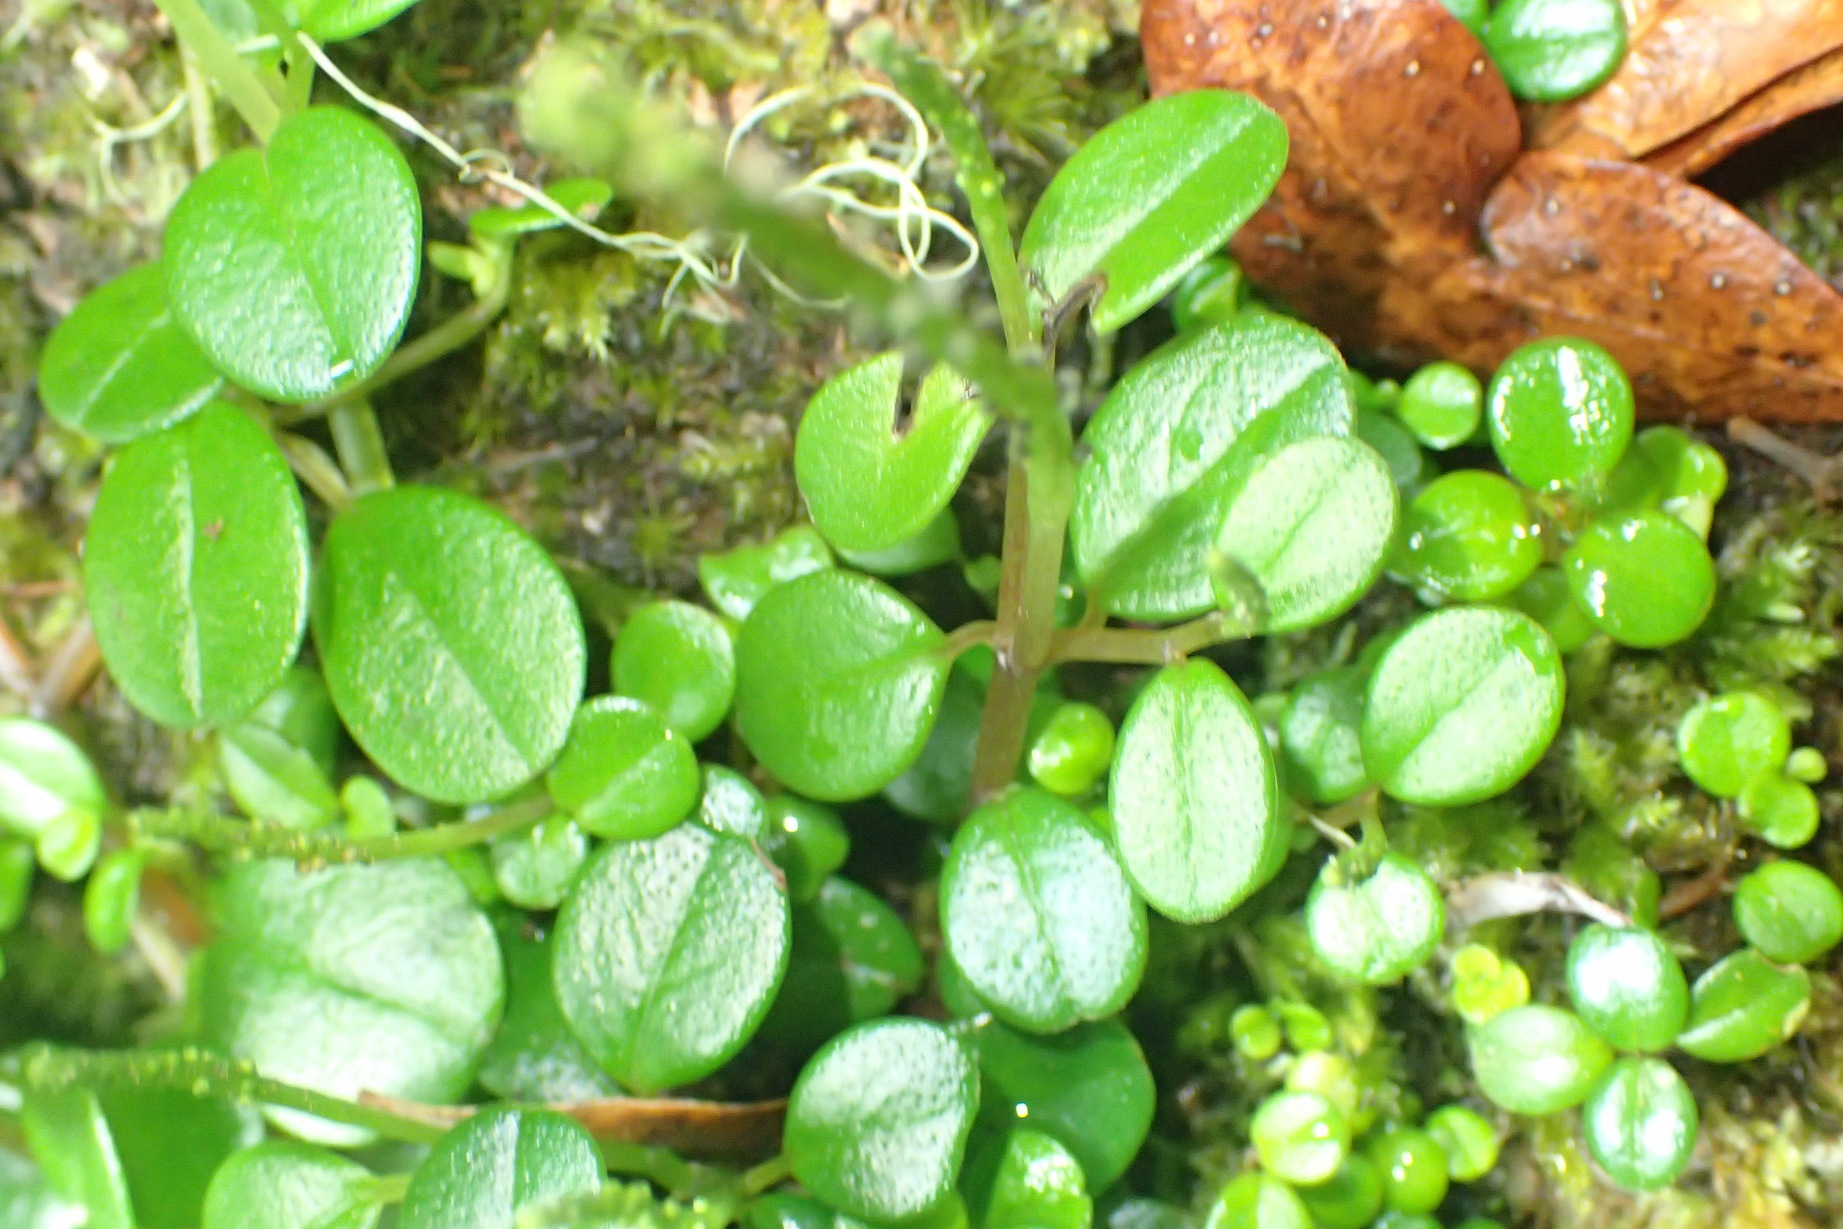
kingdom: Plantae
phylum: Tracheophyta
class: Magnoliopsida
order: Piperales
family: Piperaceae
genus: Peperomia
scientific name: Peperomia retusa
